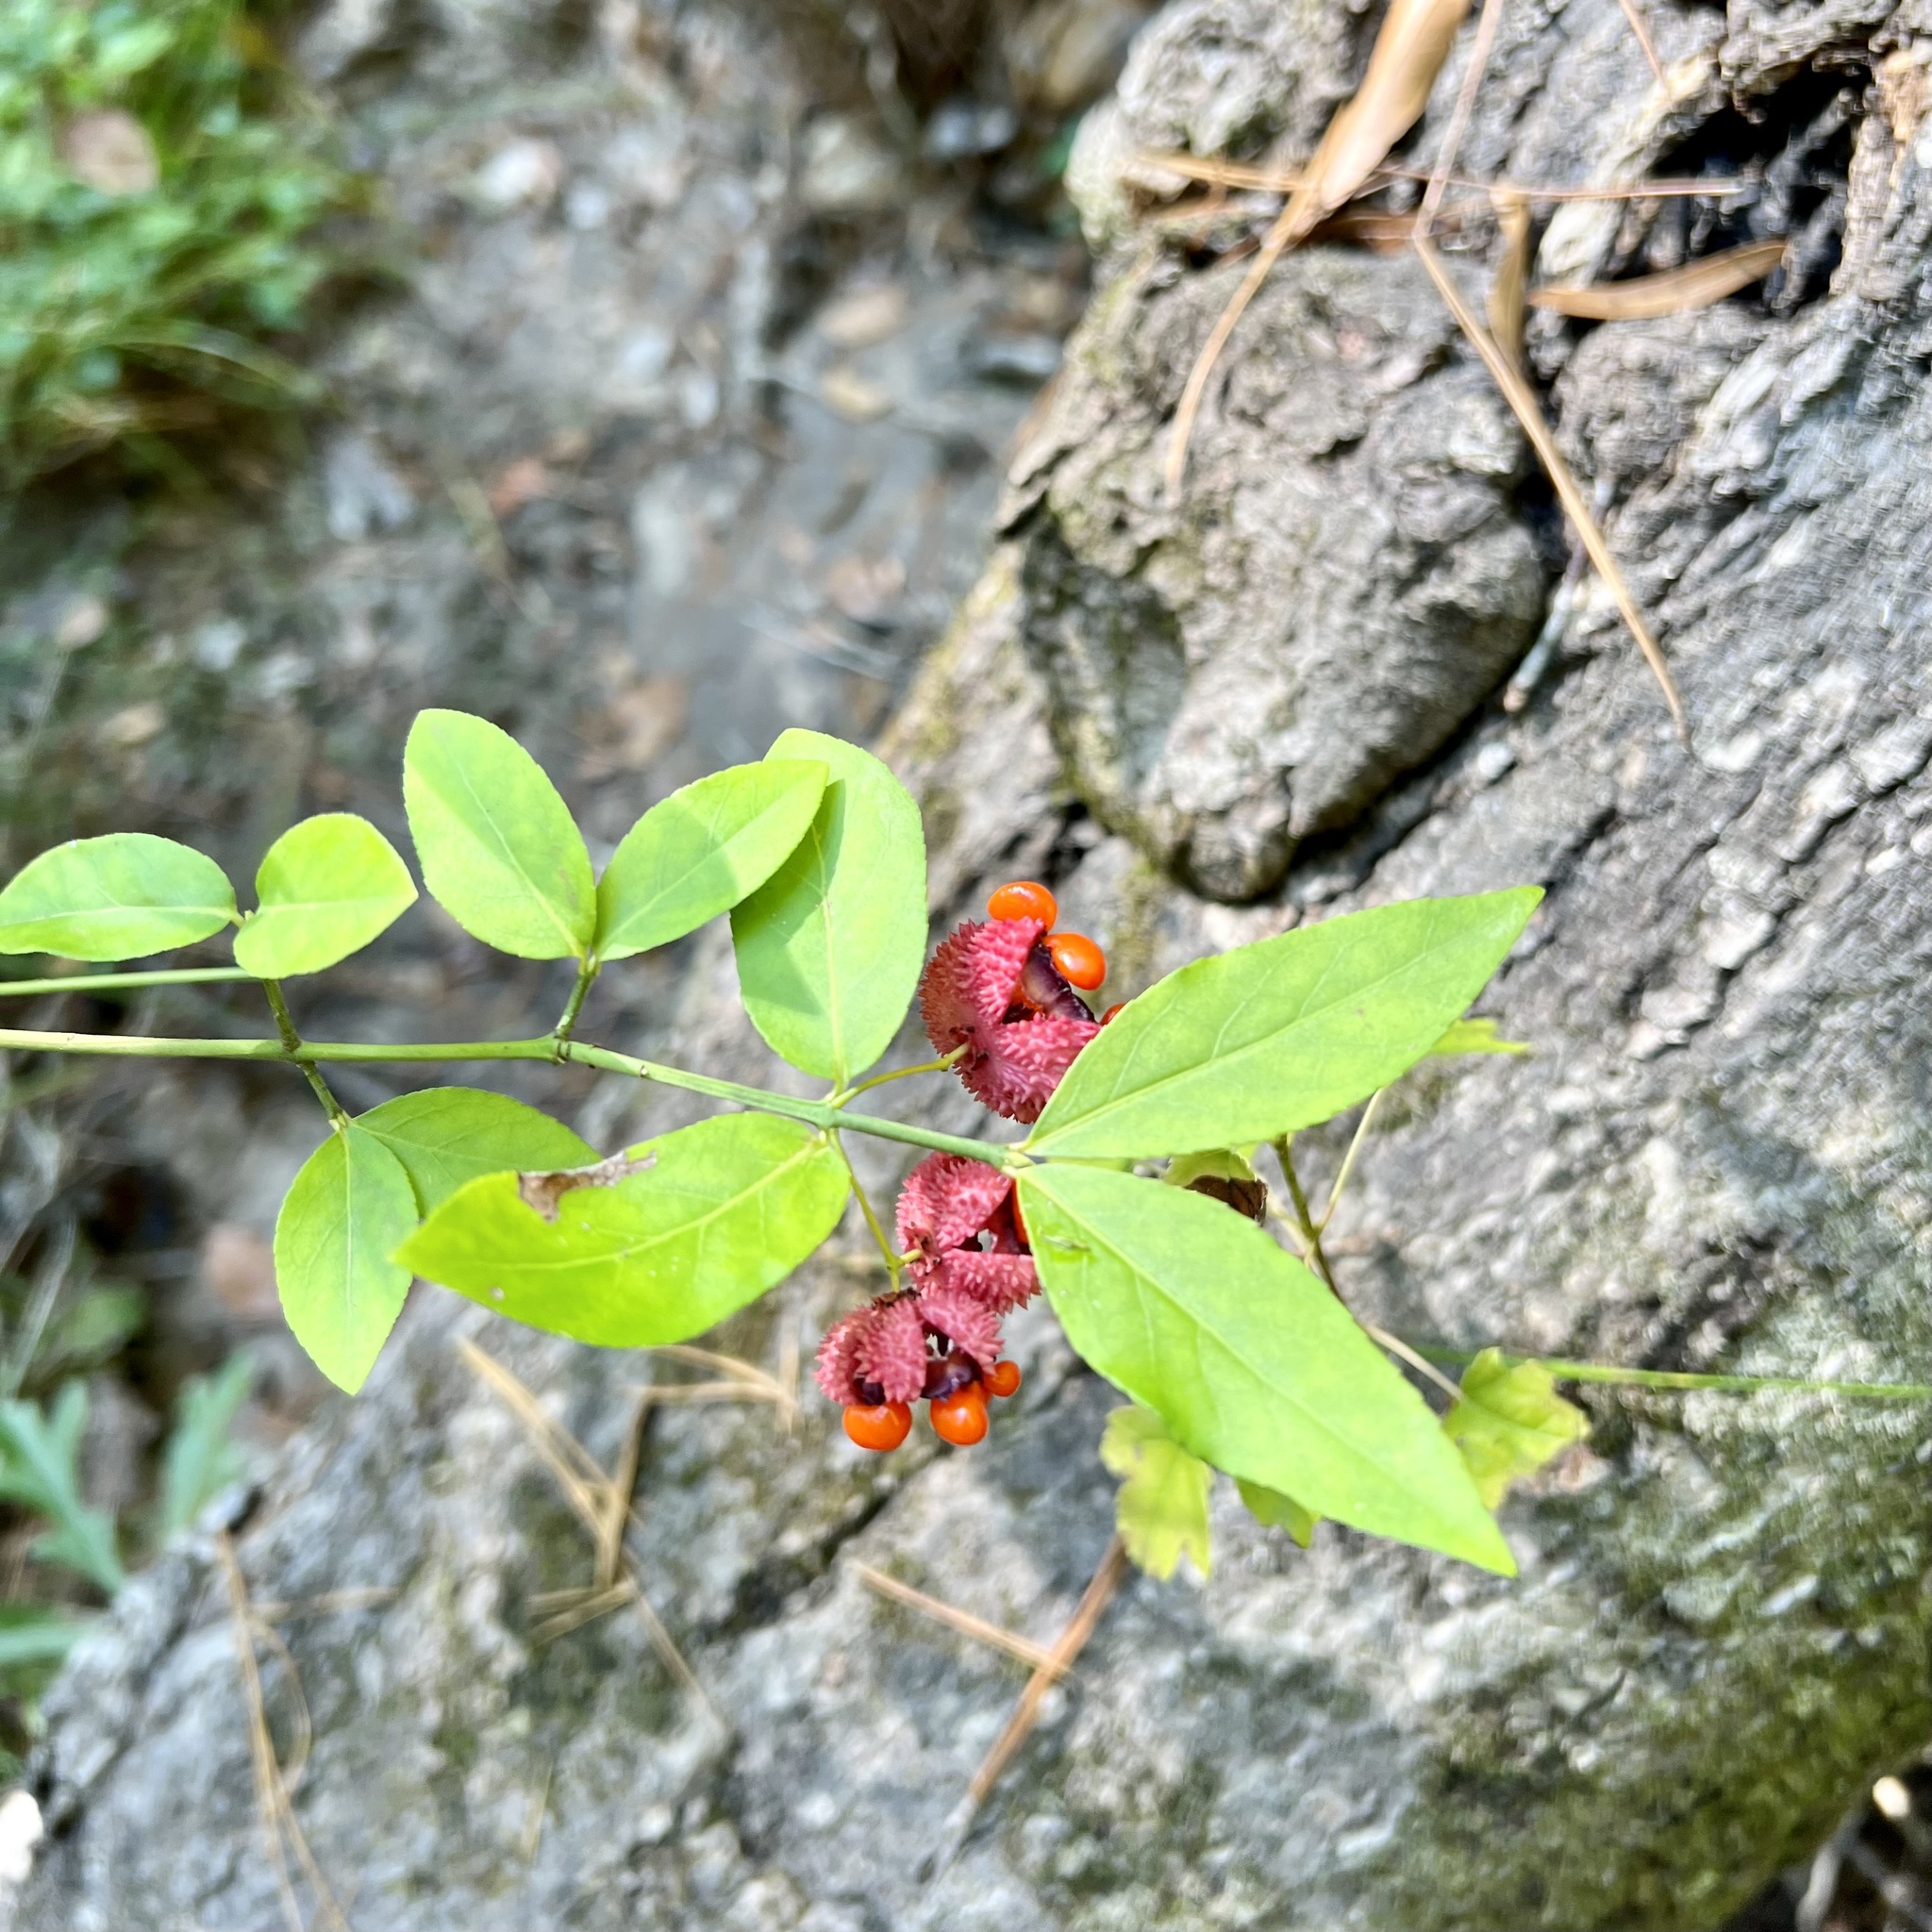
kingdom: Plantae
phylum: Tracheophyta
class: Magnoliopsida
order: Celastrales
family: Celastraceae
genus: Euonymus
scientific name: Euonymus americanus
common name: Bursting-heart
